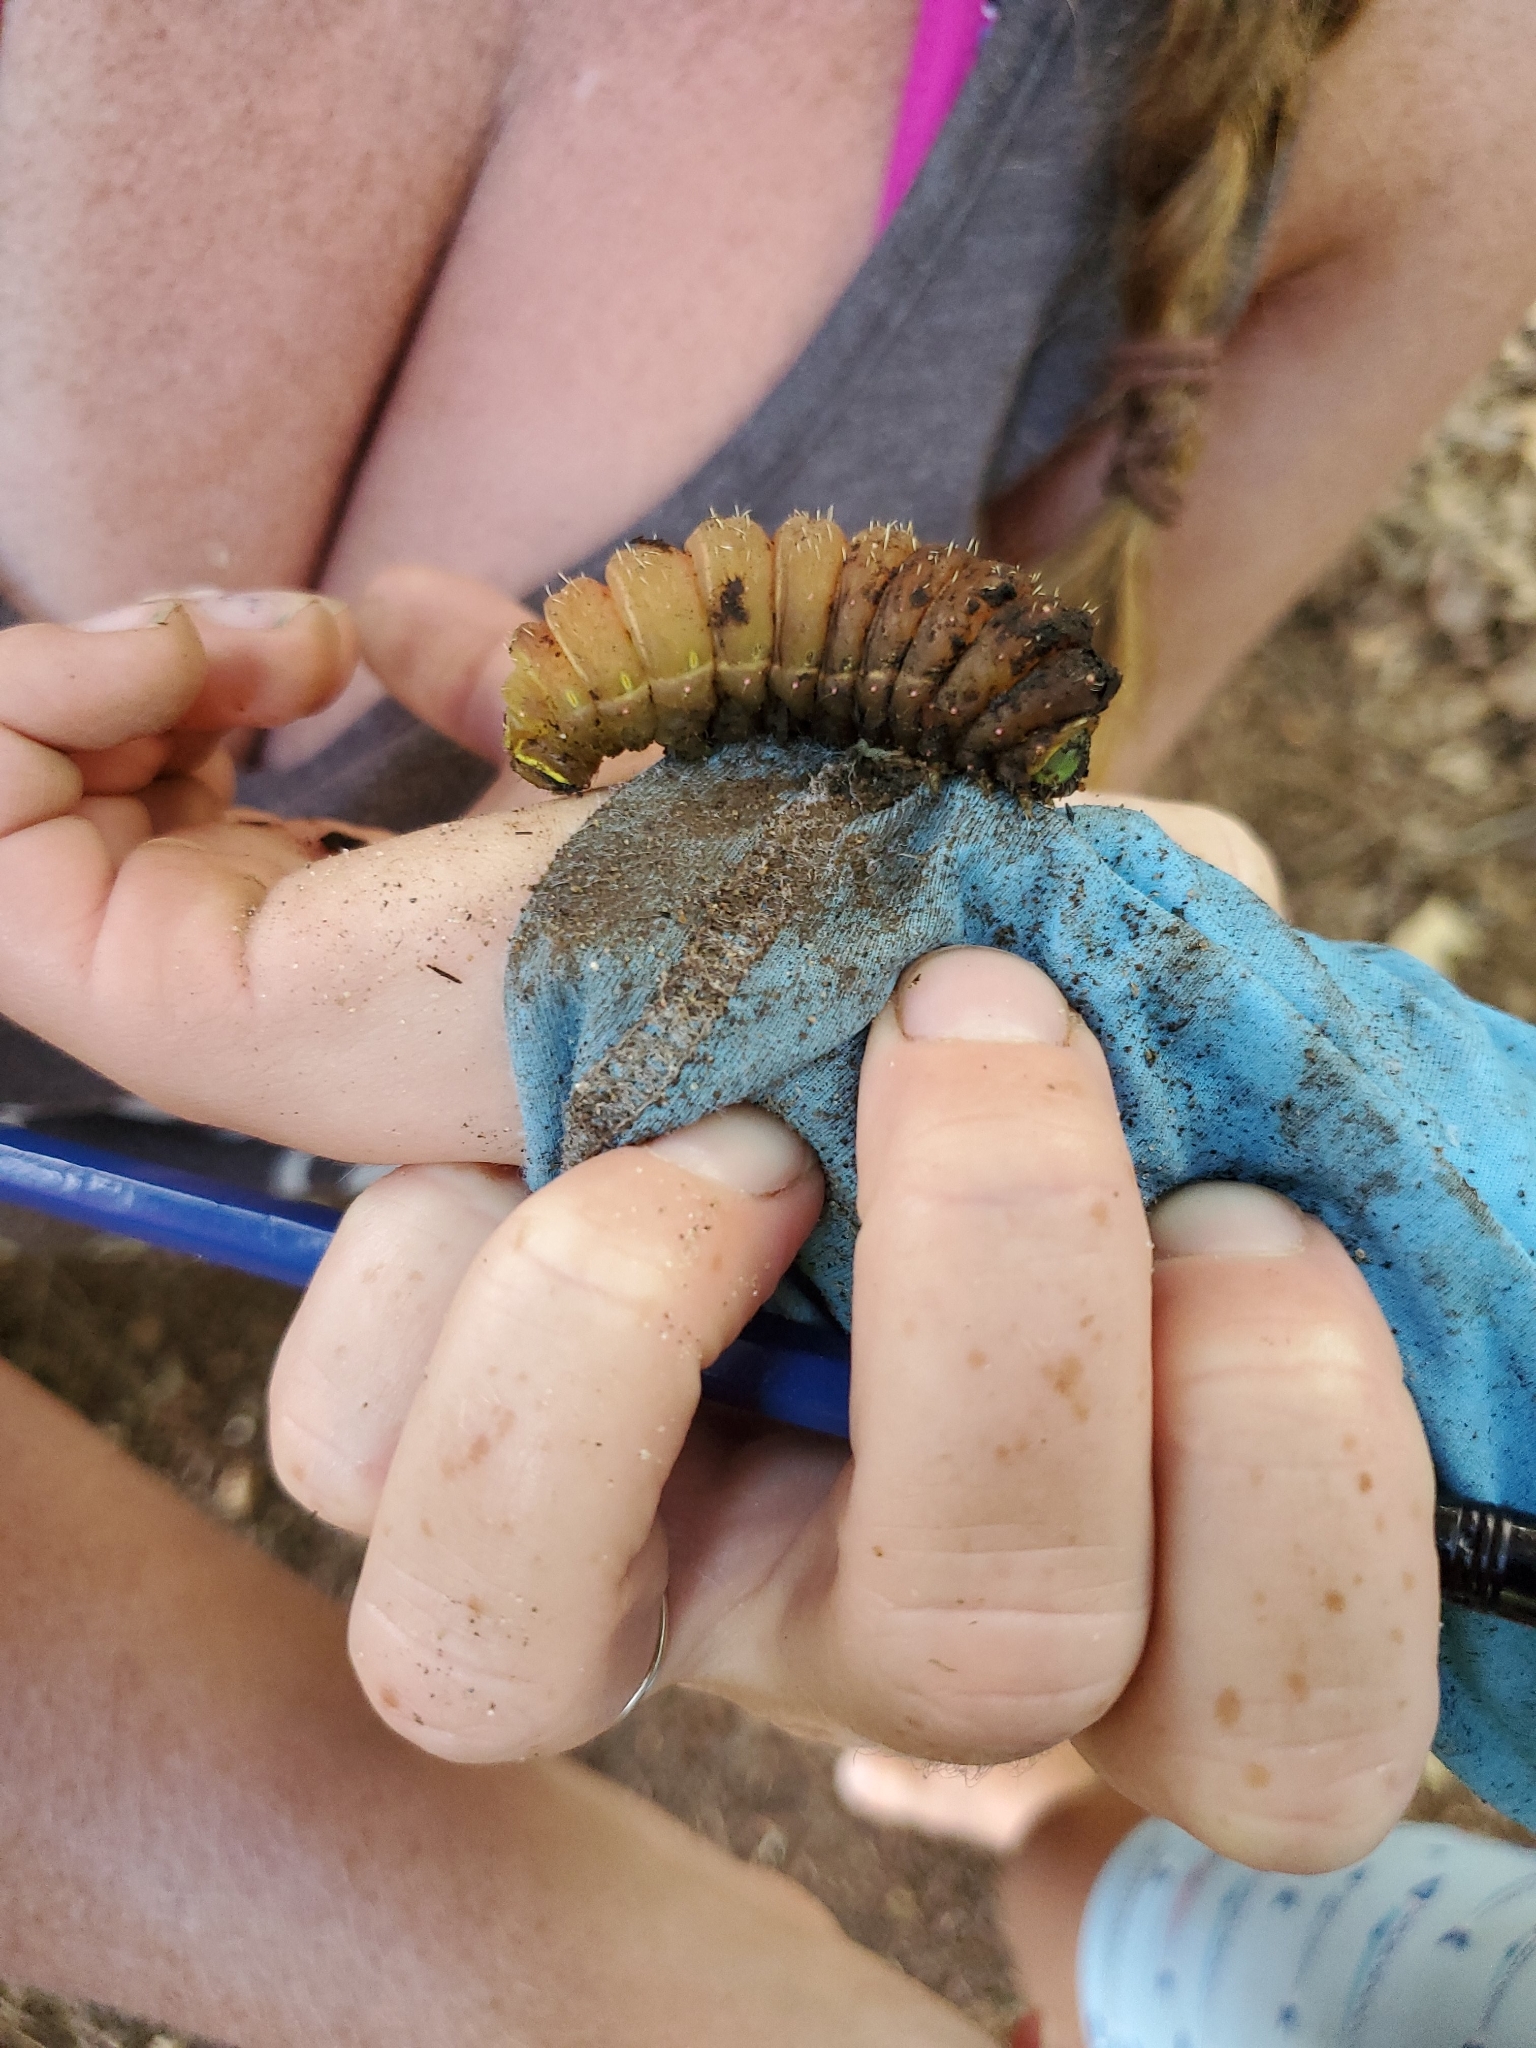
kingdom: Animalia
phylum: Arthropoda
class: Insecta
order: Lepidoptera
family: Saturniidae
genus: Actias
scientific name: Actias luna
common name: Luna moth
